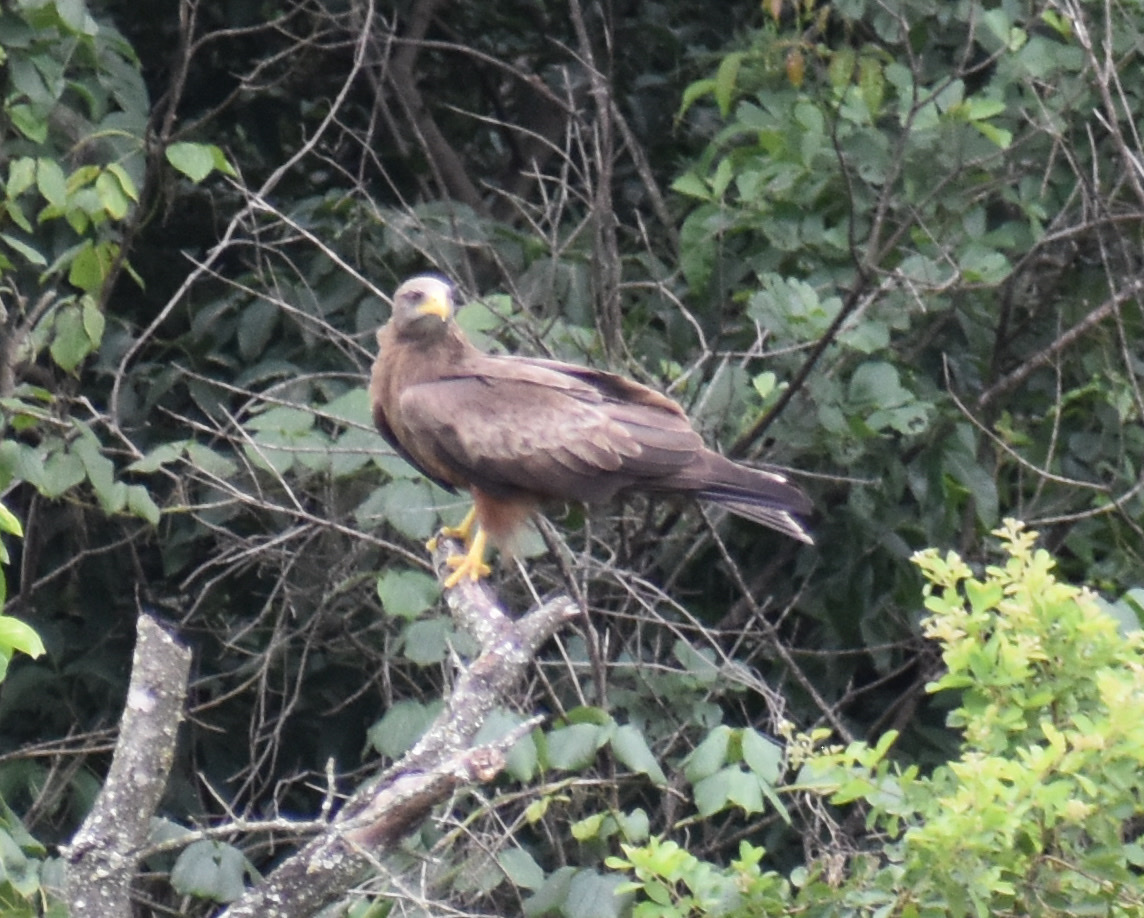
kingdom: Animalia
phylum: Chordata
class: Aves
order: Accipitriformes
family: Accipitridae
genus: Milvus
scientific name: Milvus migrans
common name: Black kite
